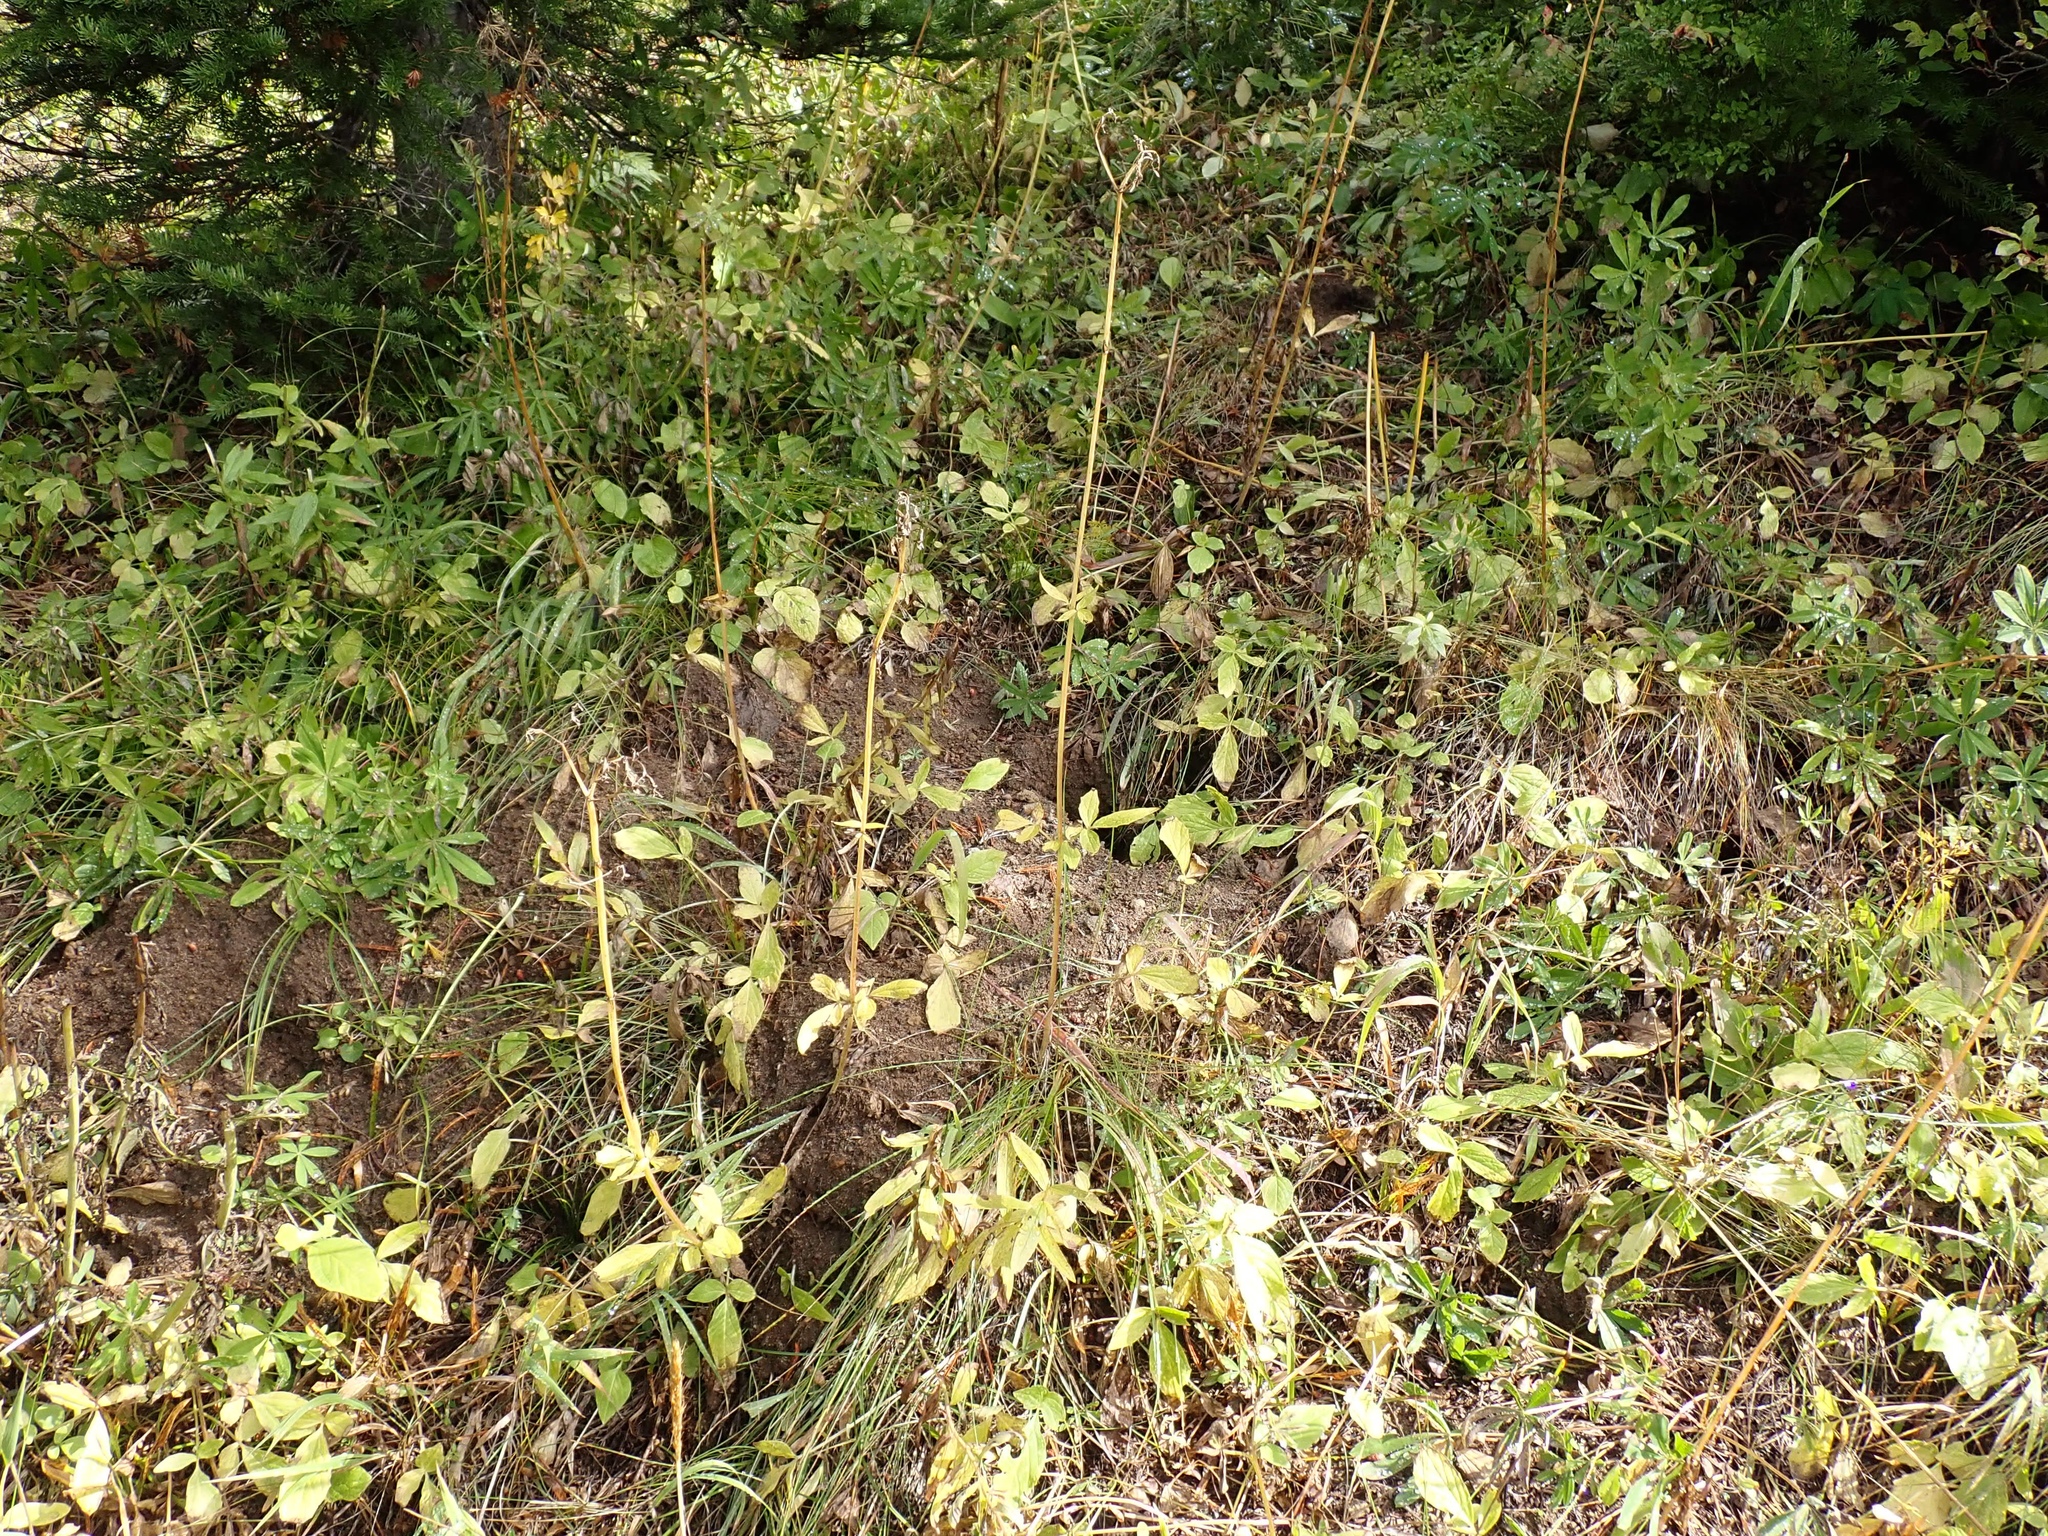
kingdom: Plantae
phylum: Tracheophyta
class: Magnoliopsida
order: Dipsacales
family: Caprifoliaceae
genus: Valeriana
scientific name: Valeriana sitchensis
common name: Pacific valerian
